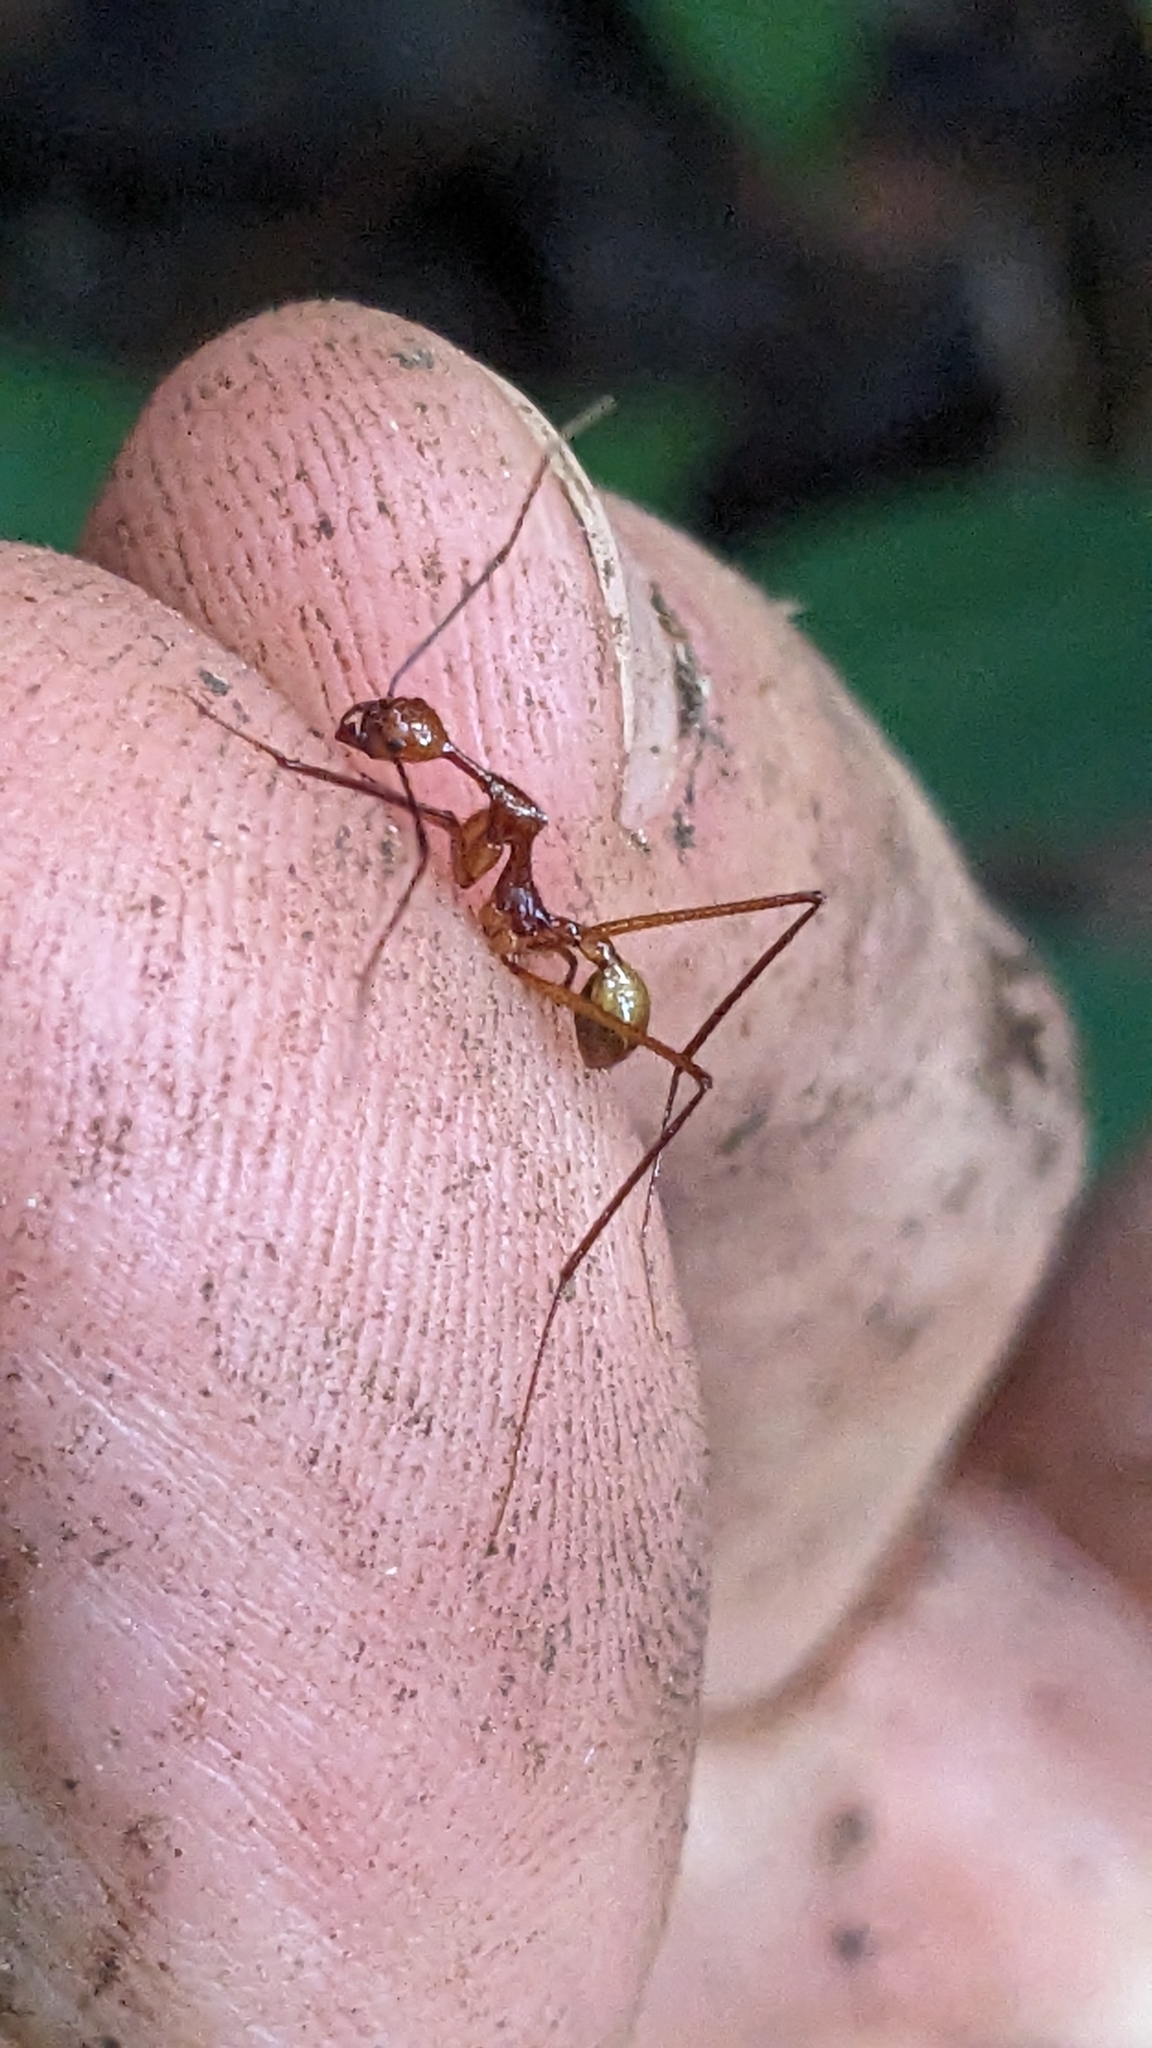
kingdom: Animalia
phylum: Arthropoda
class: Insecta
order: Hymenoptera
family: Formicidae
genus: Aphaenogaster
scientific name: Aphaenogaster dromedaria
